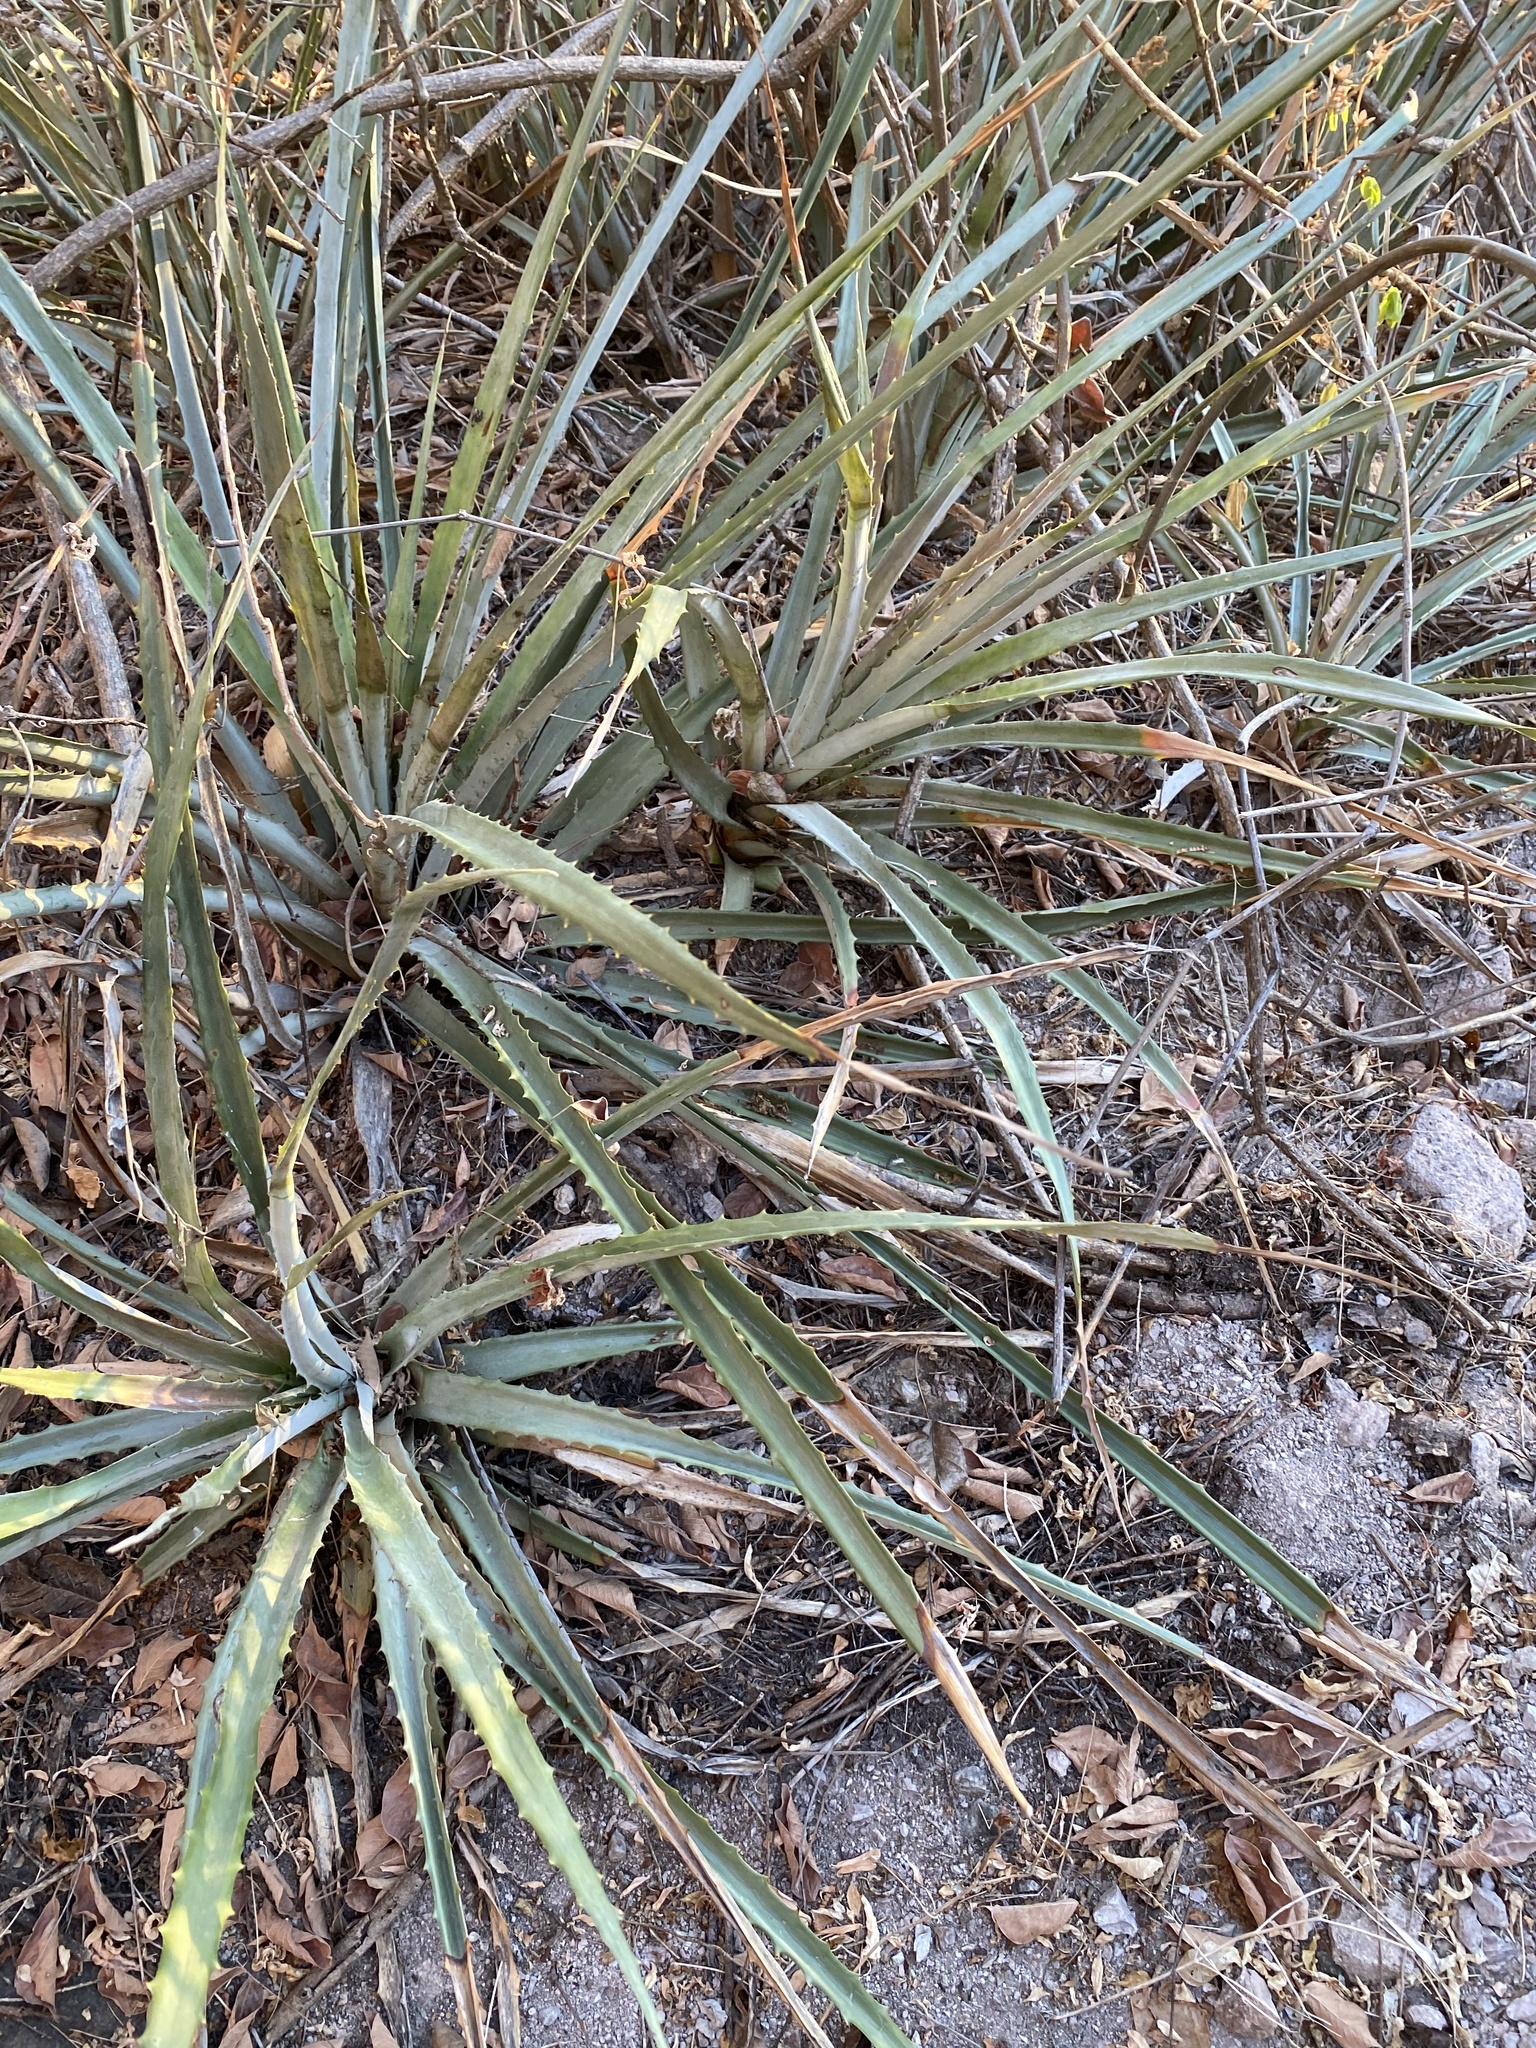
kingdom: Plantae
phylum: Tracheophyta
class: Liliopsida
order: Poales
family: Bromeliaceae
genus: Bromelia
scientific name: Bromelia pinguin
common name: Pinguin
